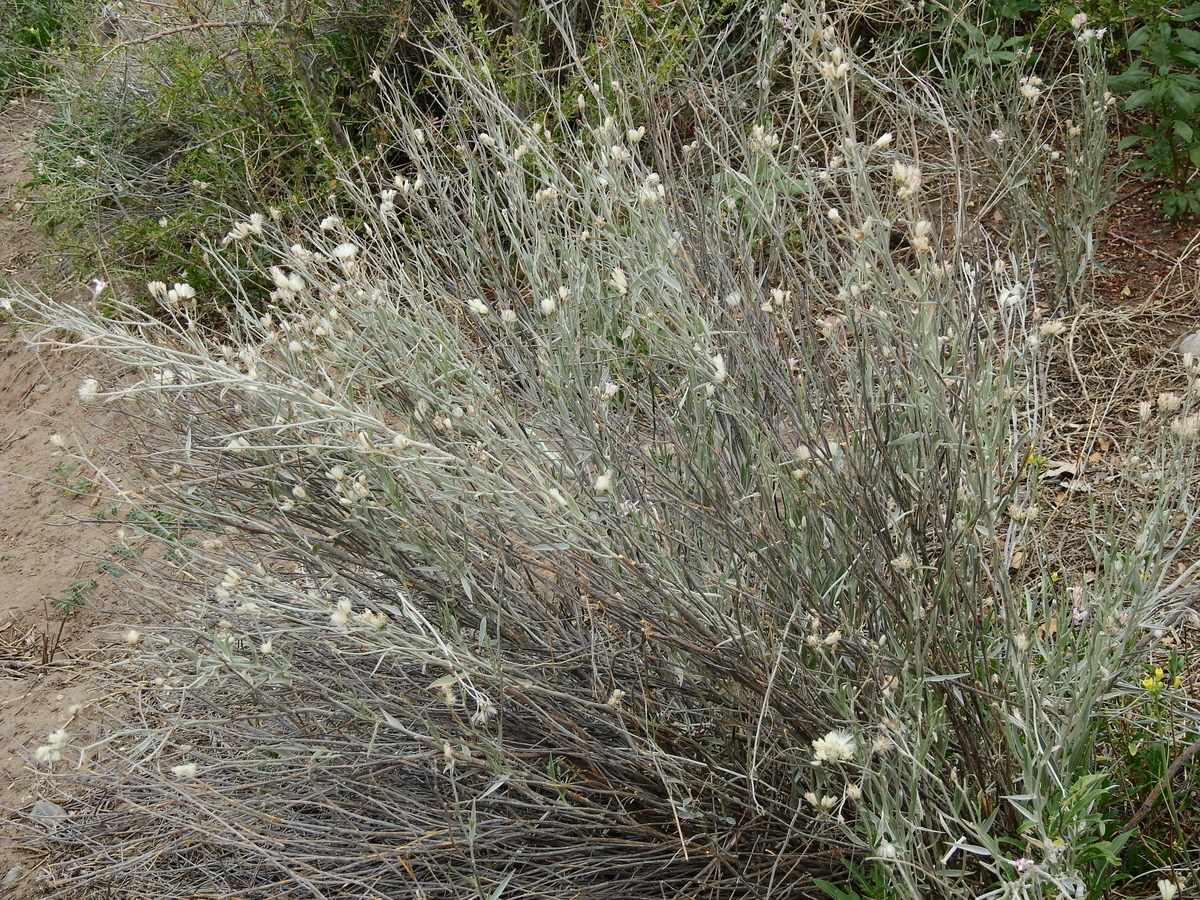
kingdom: Plantae
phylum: Tracheophyta
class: Magnoliopsida
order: Asterales
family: Asteraceae
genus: Hyalis
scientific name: Hyalis argentea
